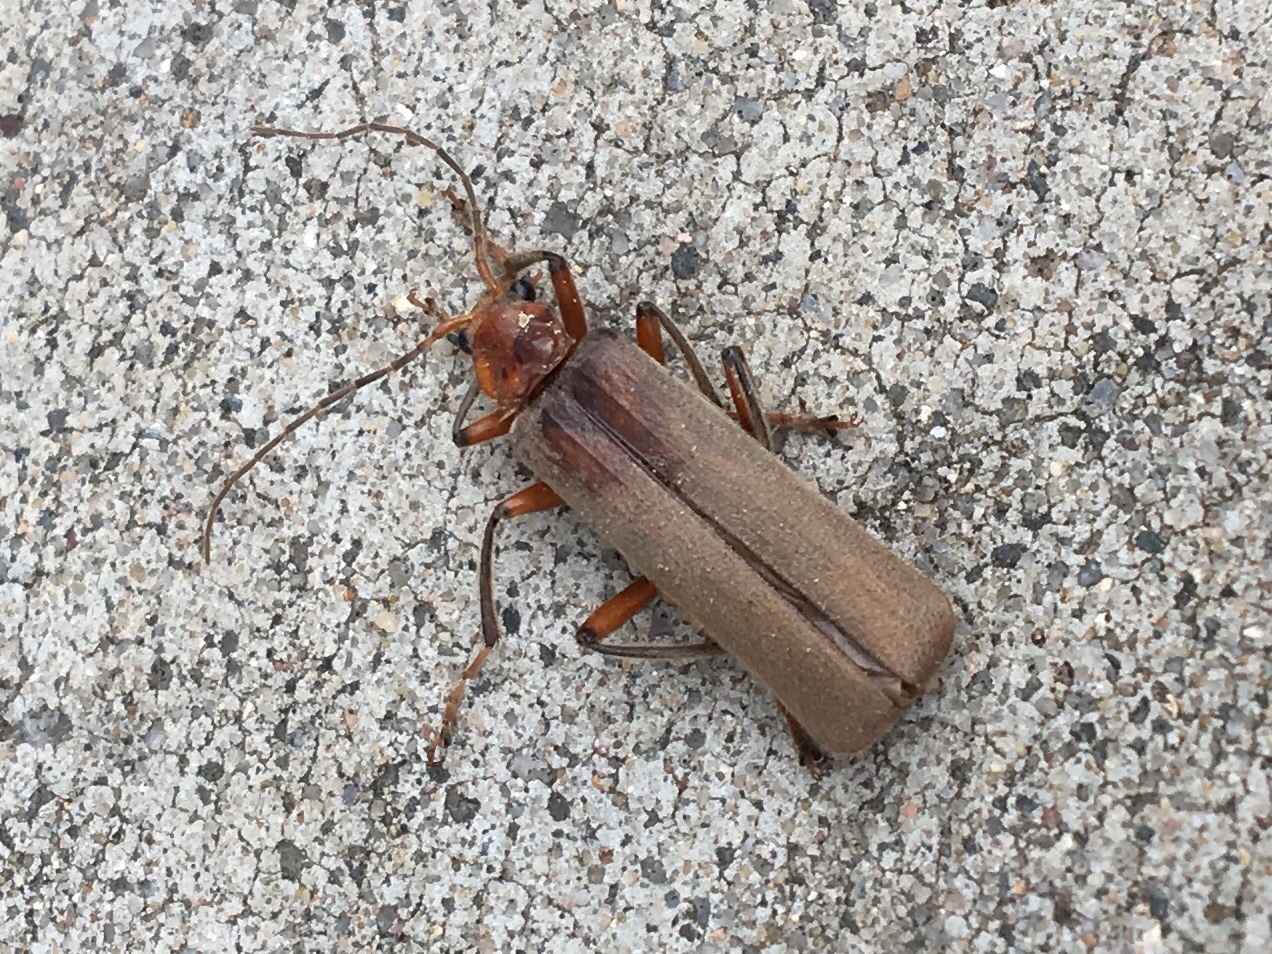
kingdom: Animalia
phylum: Arthropoda
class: Insecta
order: Coleoptera
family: Cantharidae
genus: Pacificanthia
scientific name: Pacificanthia consors
